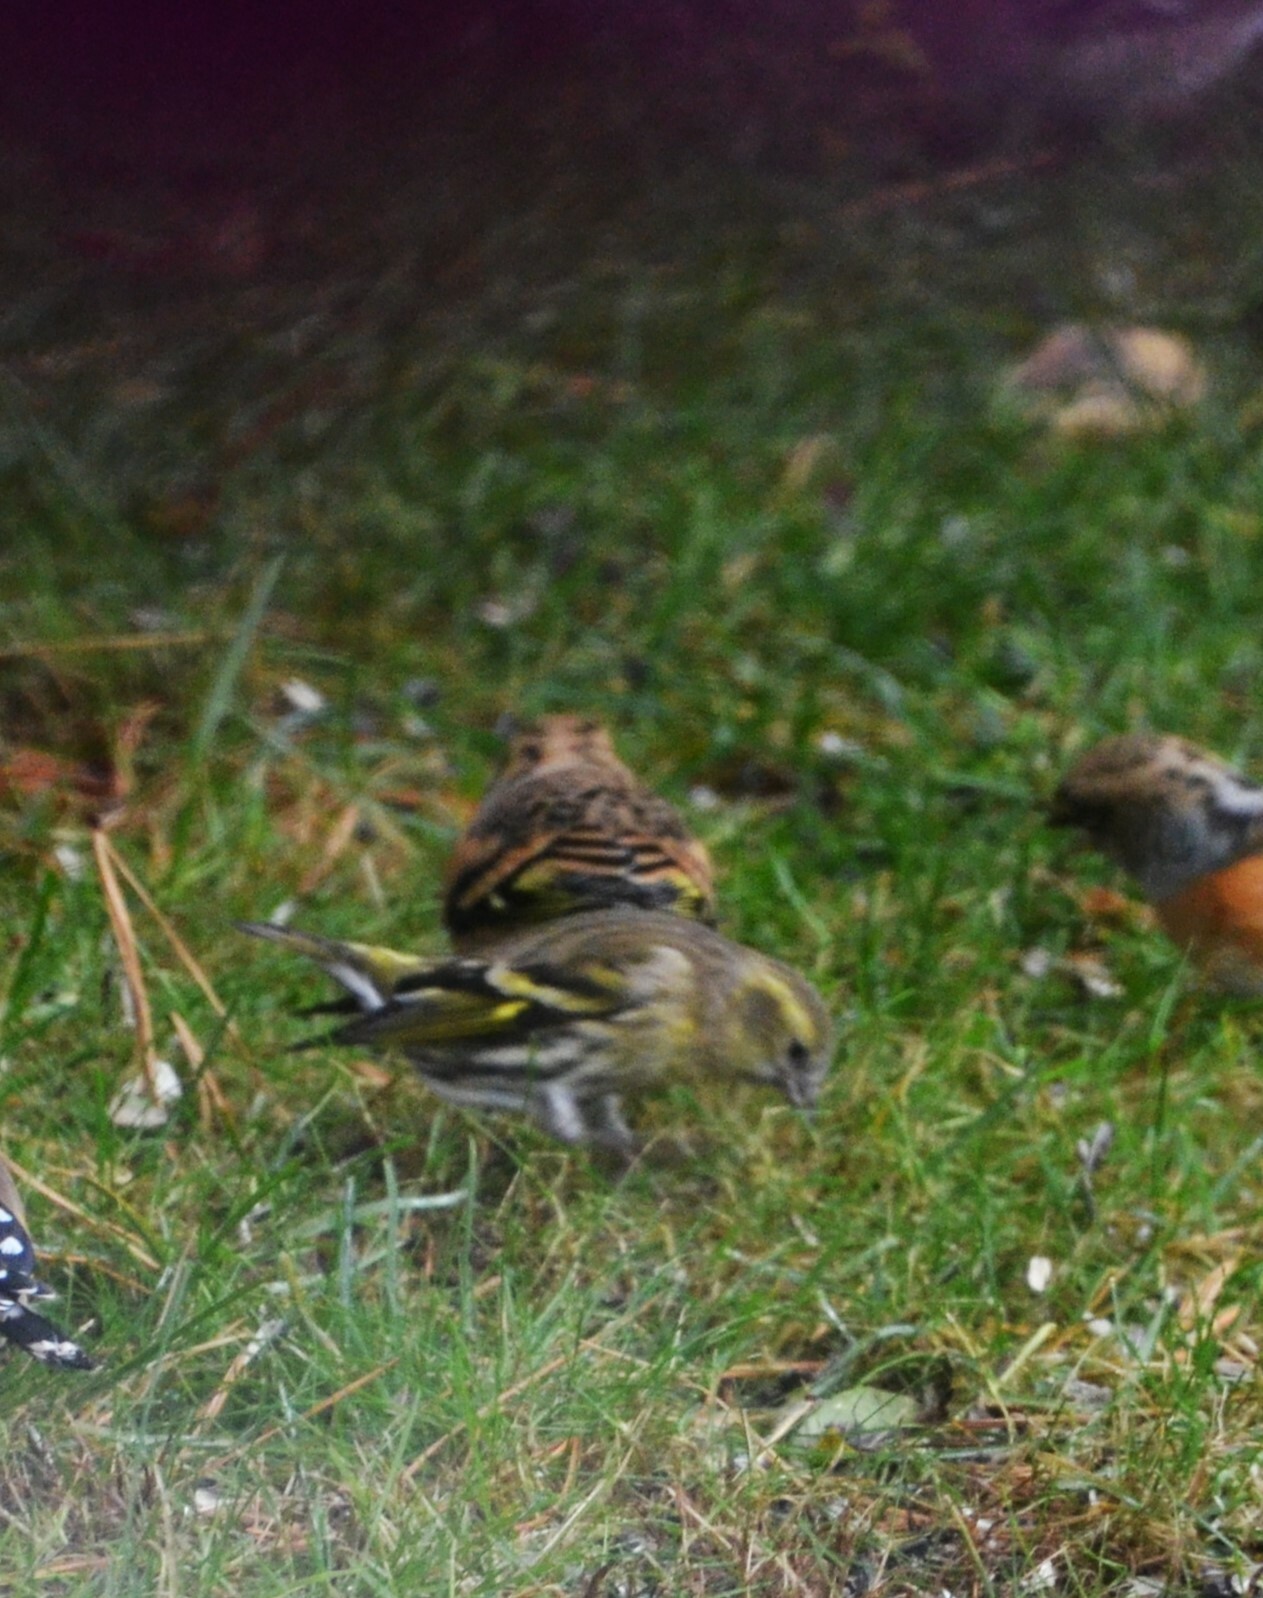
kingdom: Animalia
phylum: Chordata
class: Aves
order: Passeriformes
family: Fringillidae
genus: Spinus
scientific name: Spinus spinus
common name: Eurasian siskin
